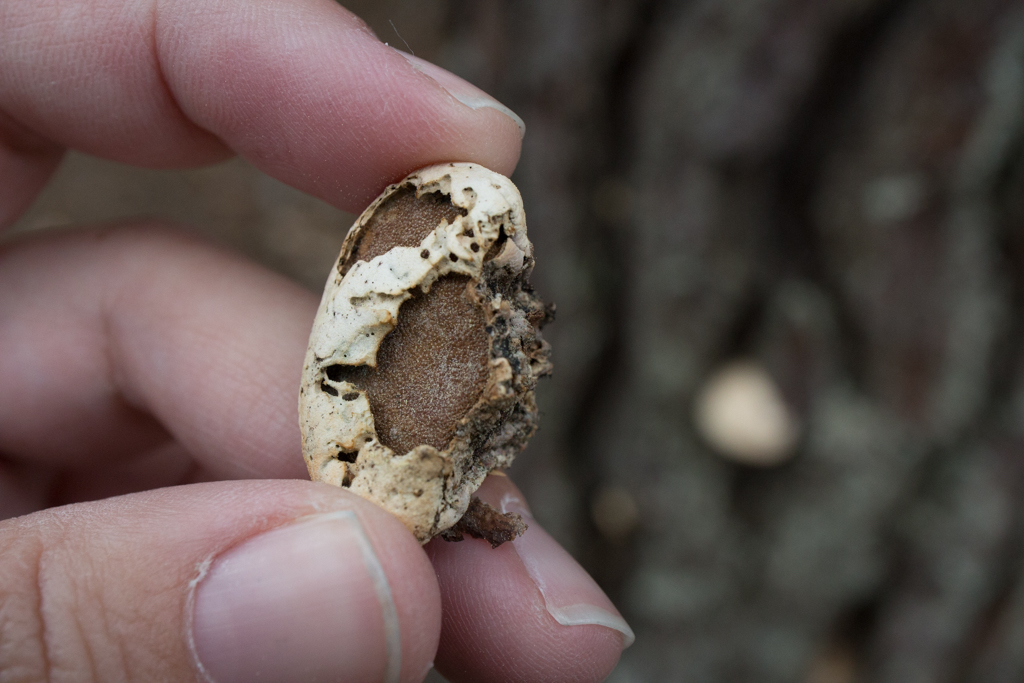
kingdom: Fungi
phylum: Basidiomycota
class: Agaricomycetes
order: Polyporales
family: Polyporaceae
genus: Cryptoporus
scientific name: Cryptoporus volvatus
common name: Veiled polypore
